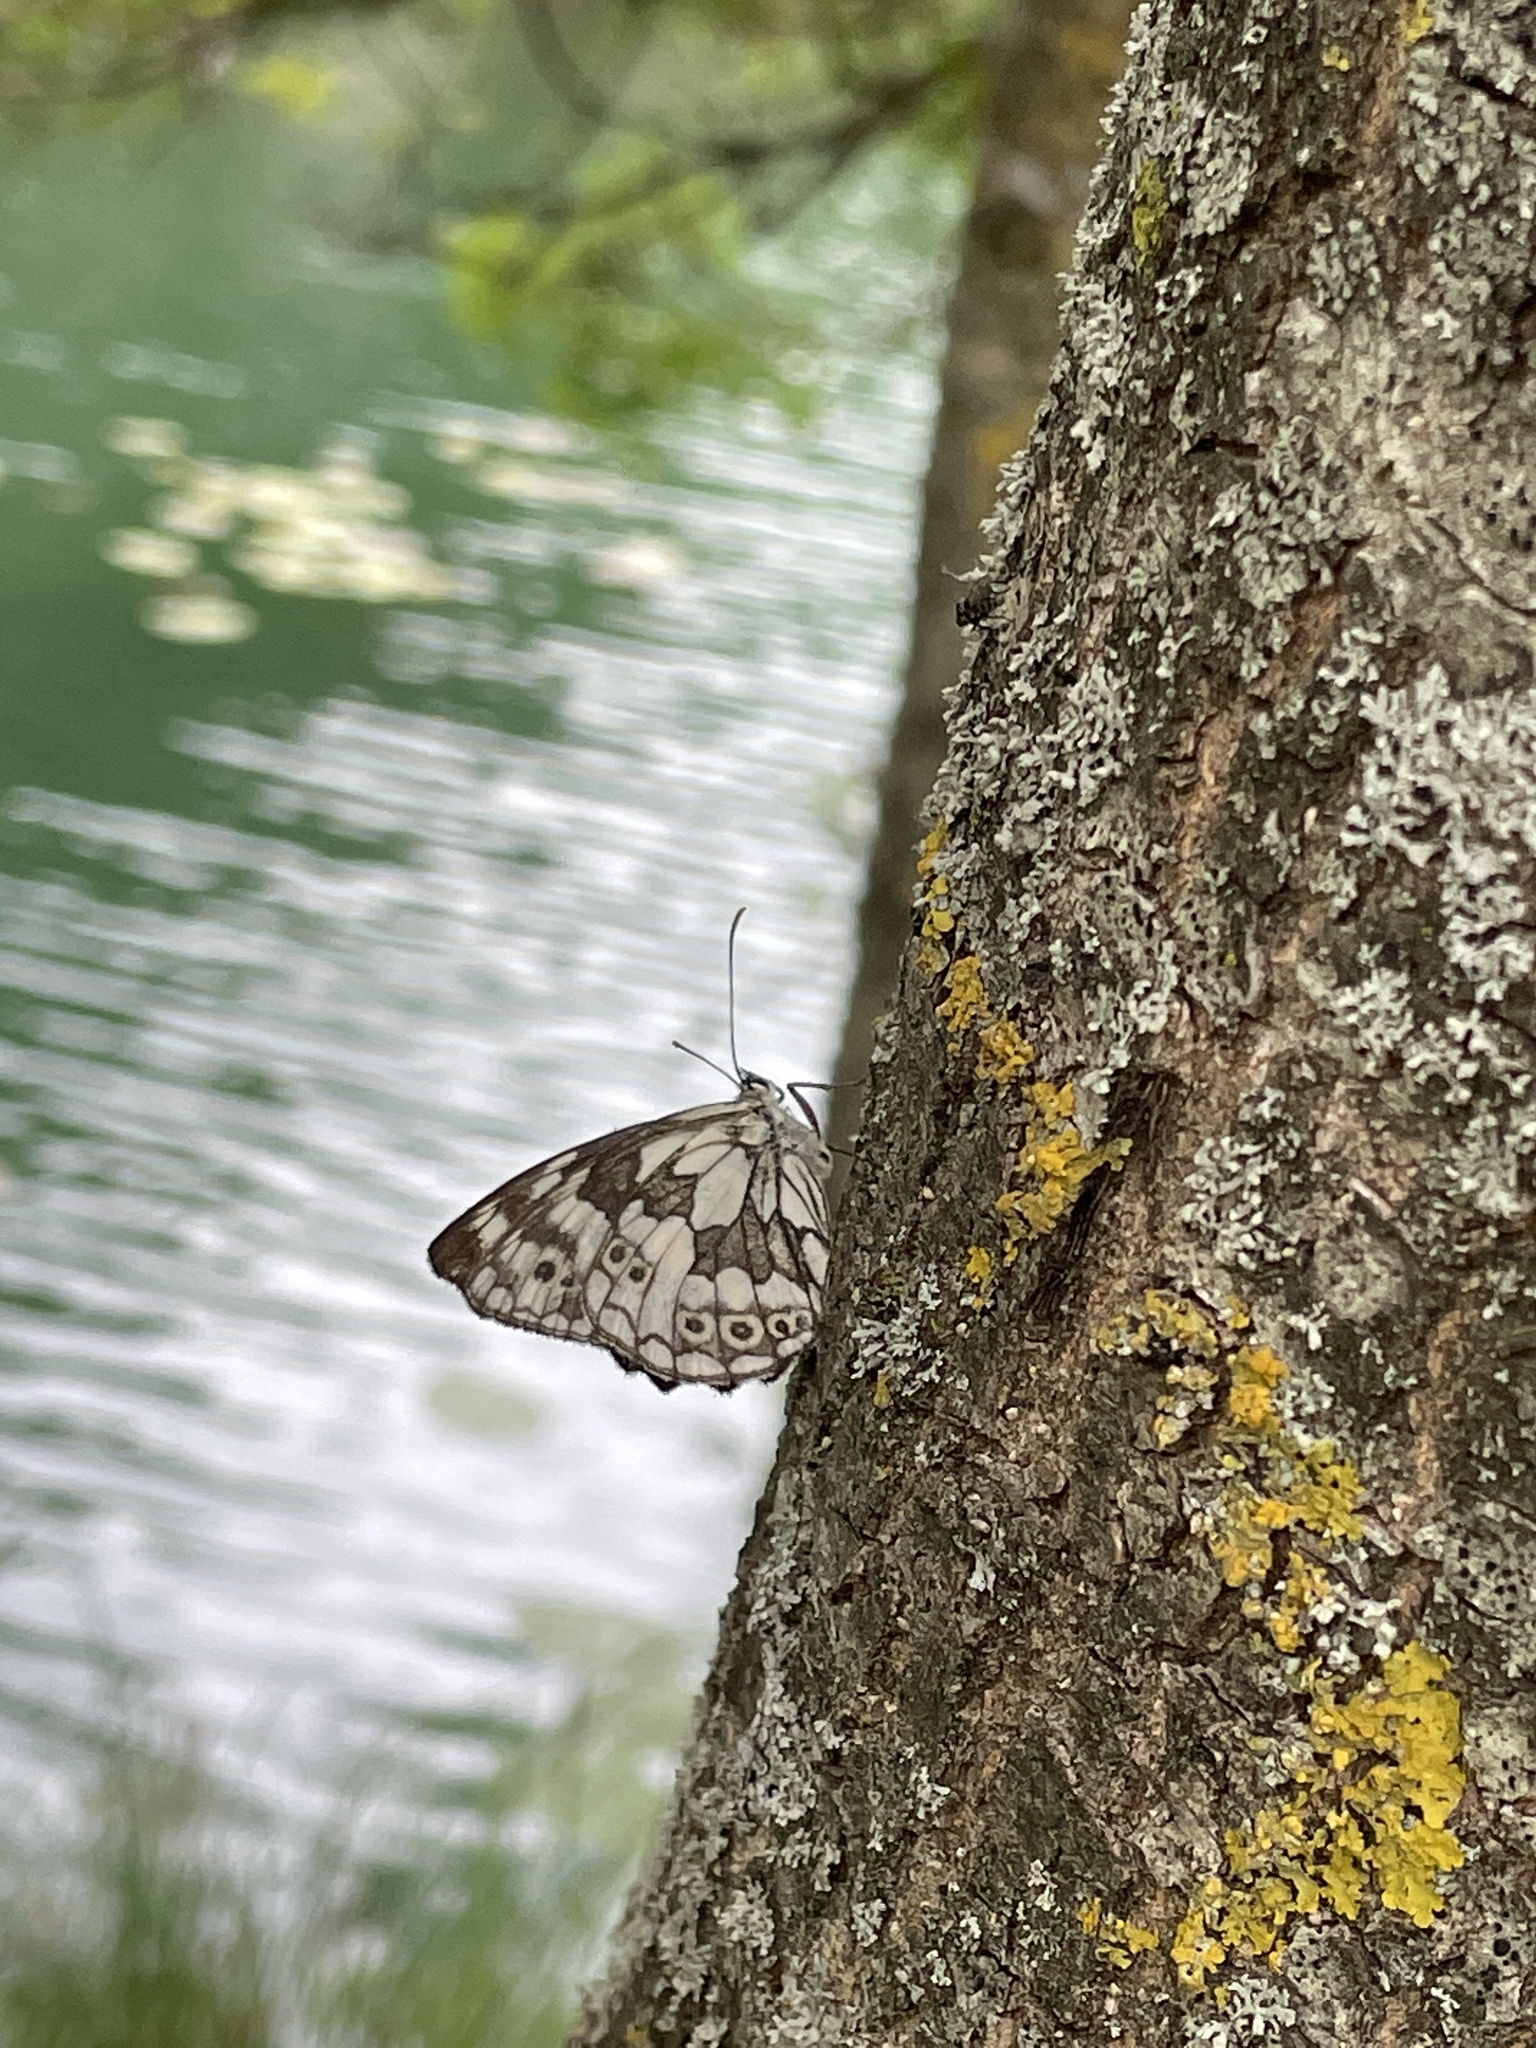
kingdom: Animalia
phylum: Arthropoda
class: Insecta
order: Lepidoptera
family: Nymphalidae
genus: Melanargia
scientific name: Melanargia galathea
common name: Marbled white
